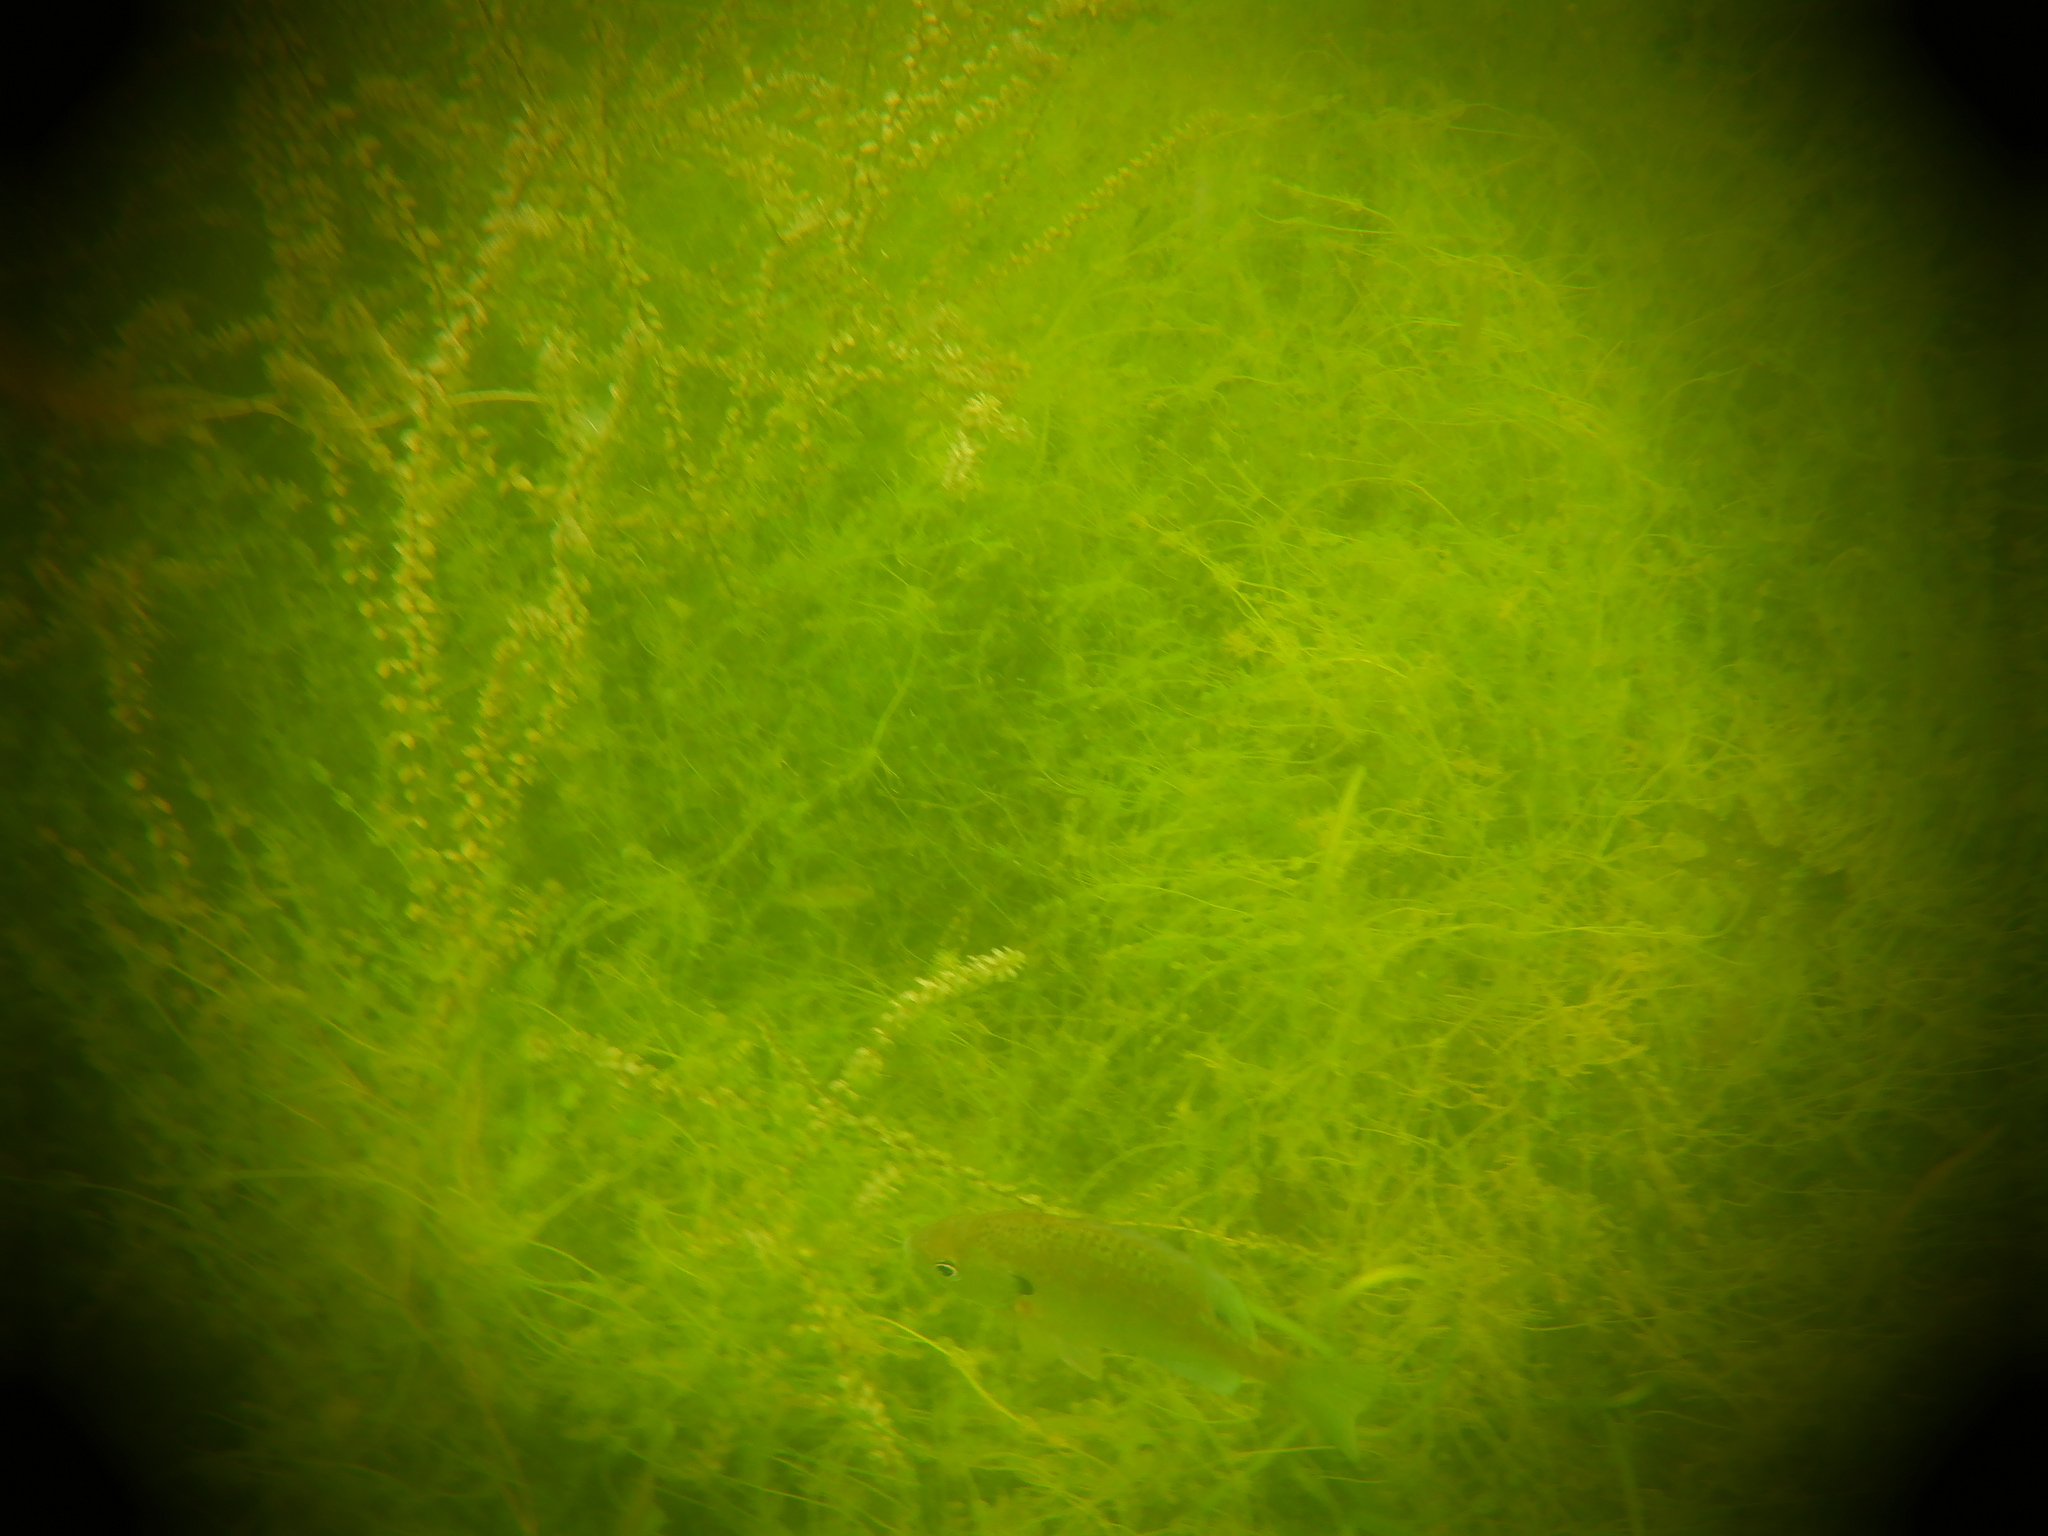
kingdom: Animalia
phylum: Chordata
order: Perciformes
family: Centrarchidae
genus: Lepomis
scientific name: Lepomis macrochirus
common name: Bluegill
